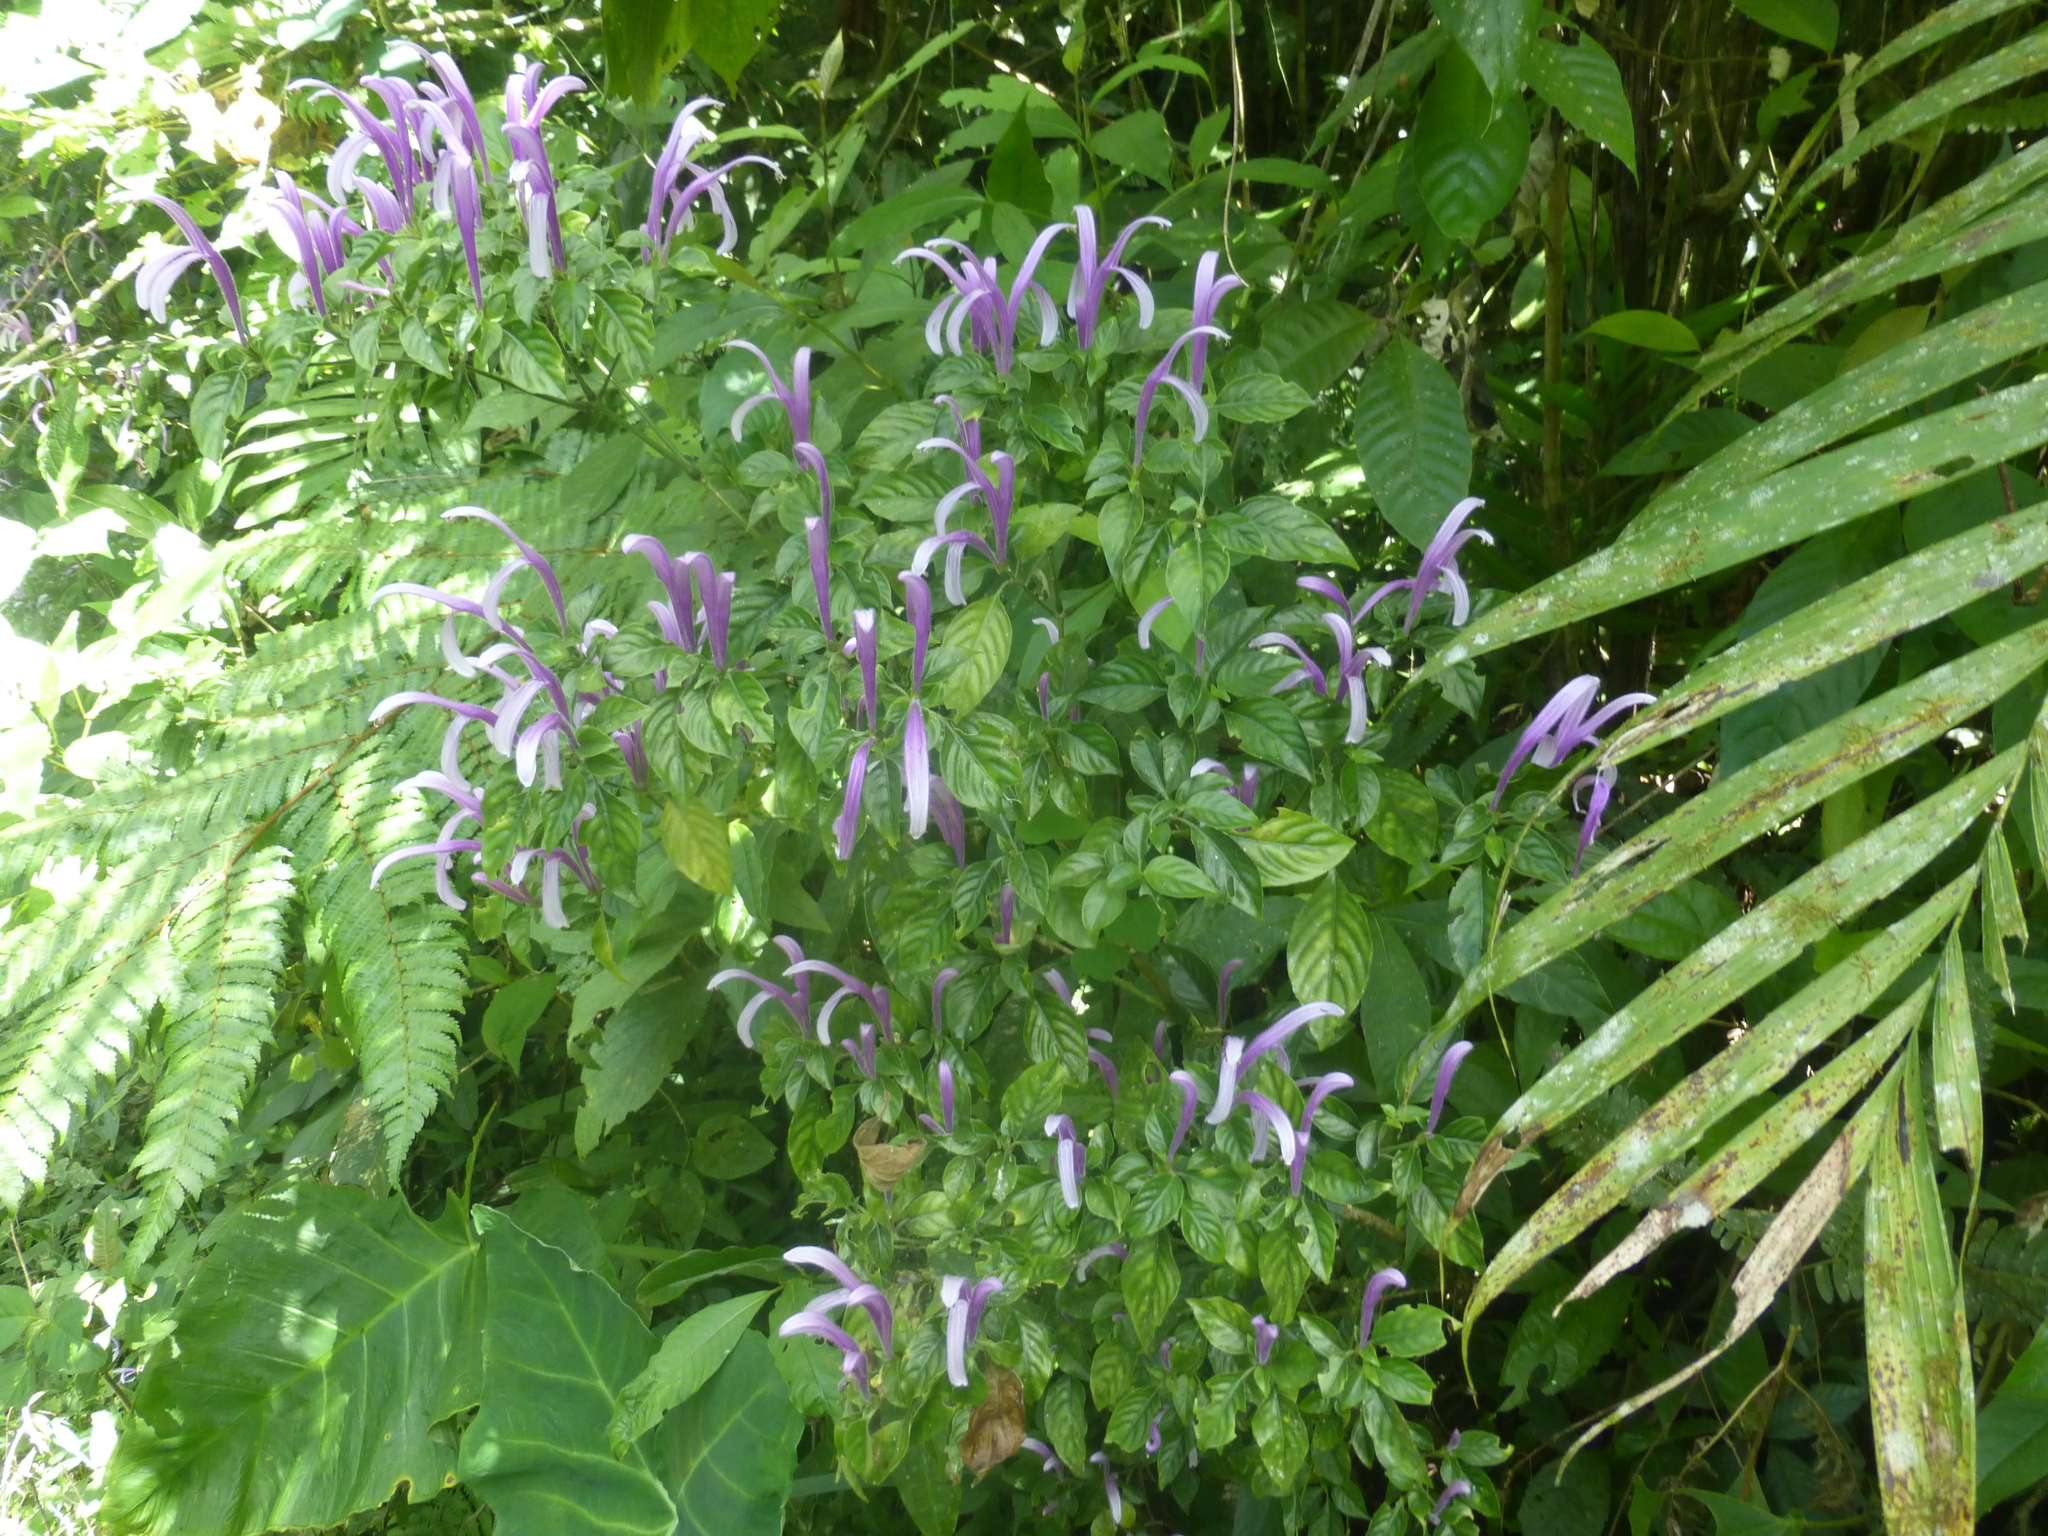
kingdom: Plantae
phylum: Tracheophyta
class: Magnoliopsida
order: Lamiales
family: Acanthaceae
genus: Poikilacanthus
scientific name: Poikilacanthus macranthus
